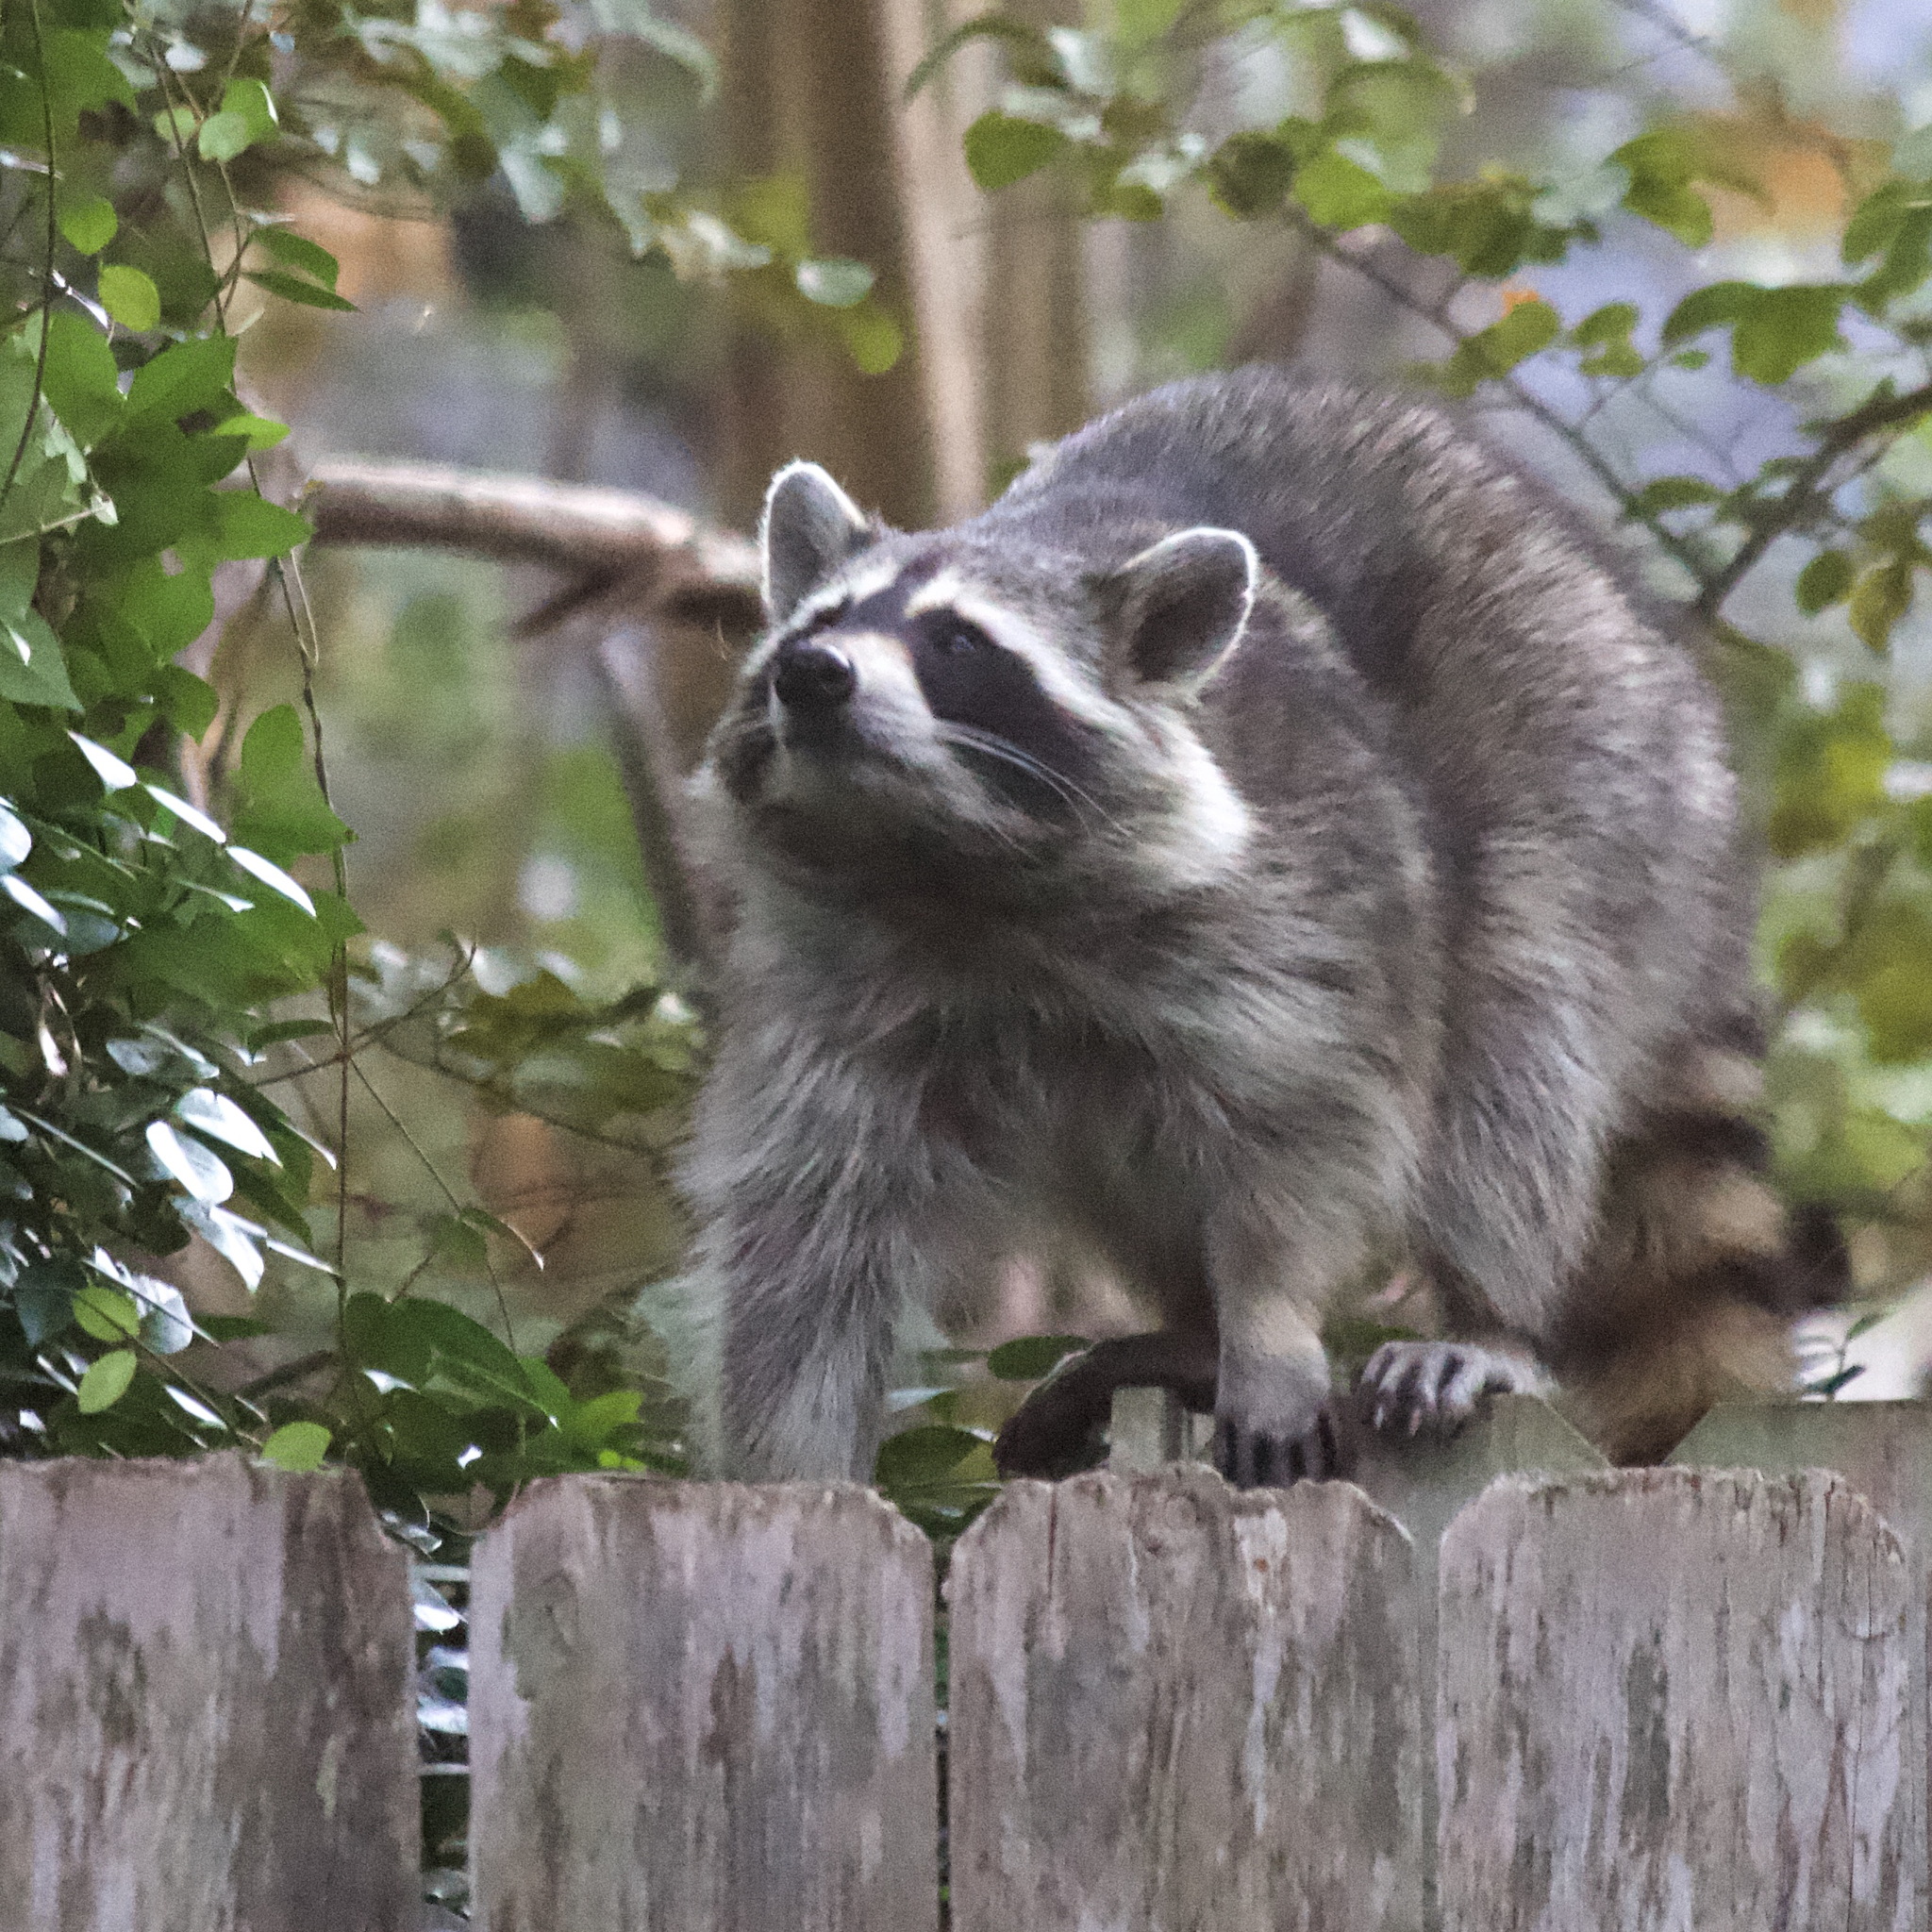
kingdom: Animalia
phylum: Chordata
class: Mammalia
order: Carnivora
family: Procyonidae
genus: Procyon
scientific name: Procyon lotor
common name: Raccoon
